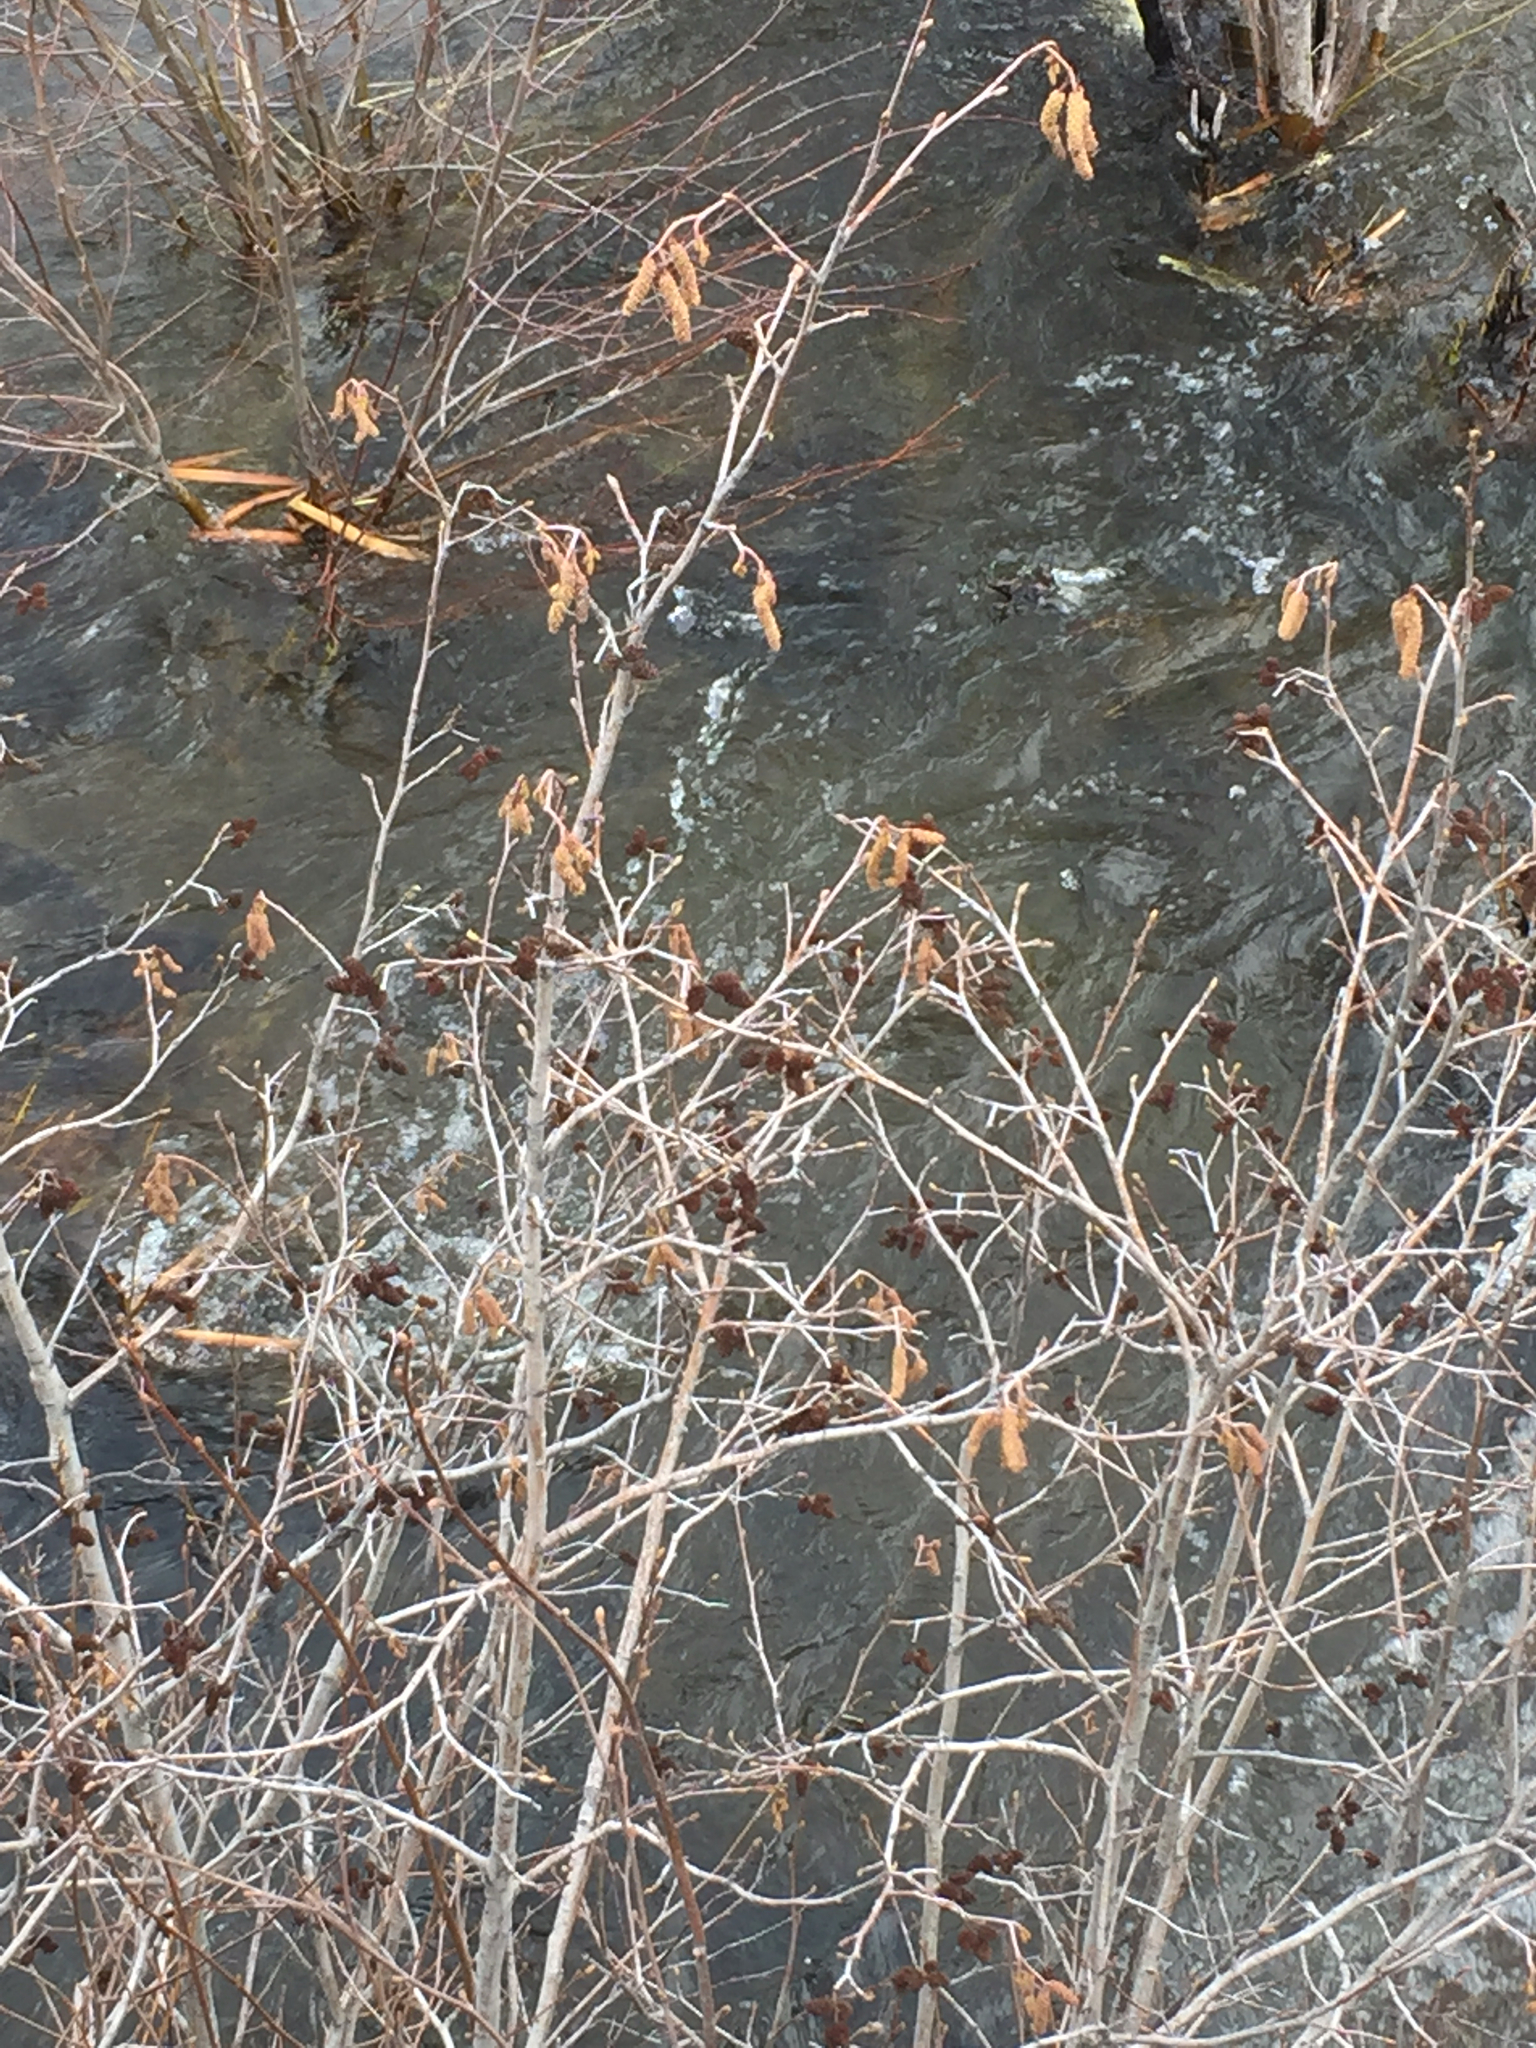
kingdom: Plantae
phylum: Tracheophyta
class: Magnoliopsida
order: Fagales
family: Betulaceae
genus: Alnus
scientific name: Alnus incana
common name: Grey alder
